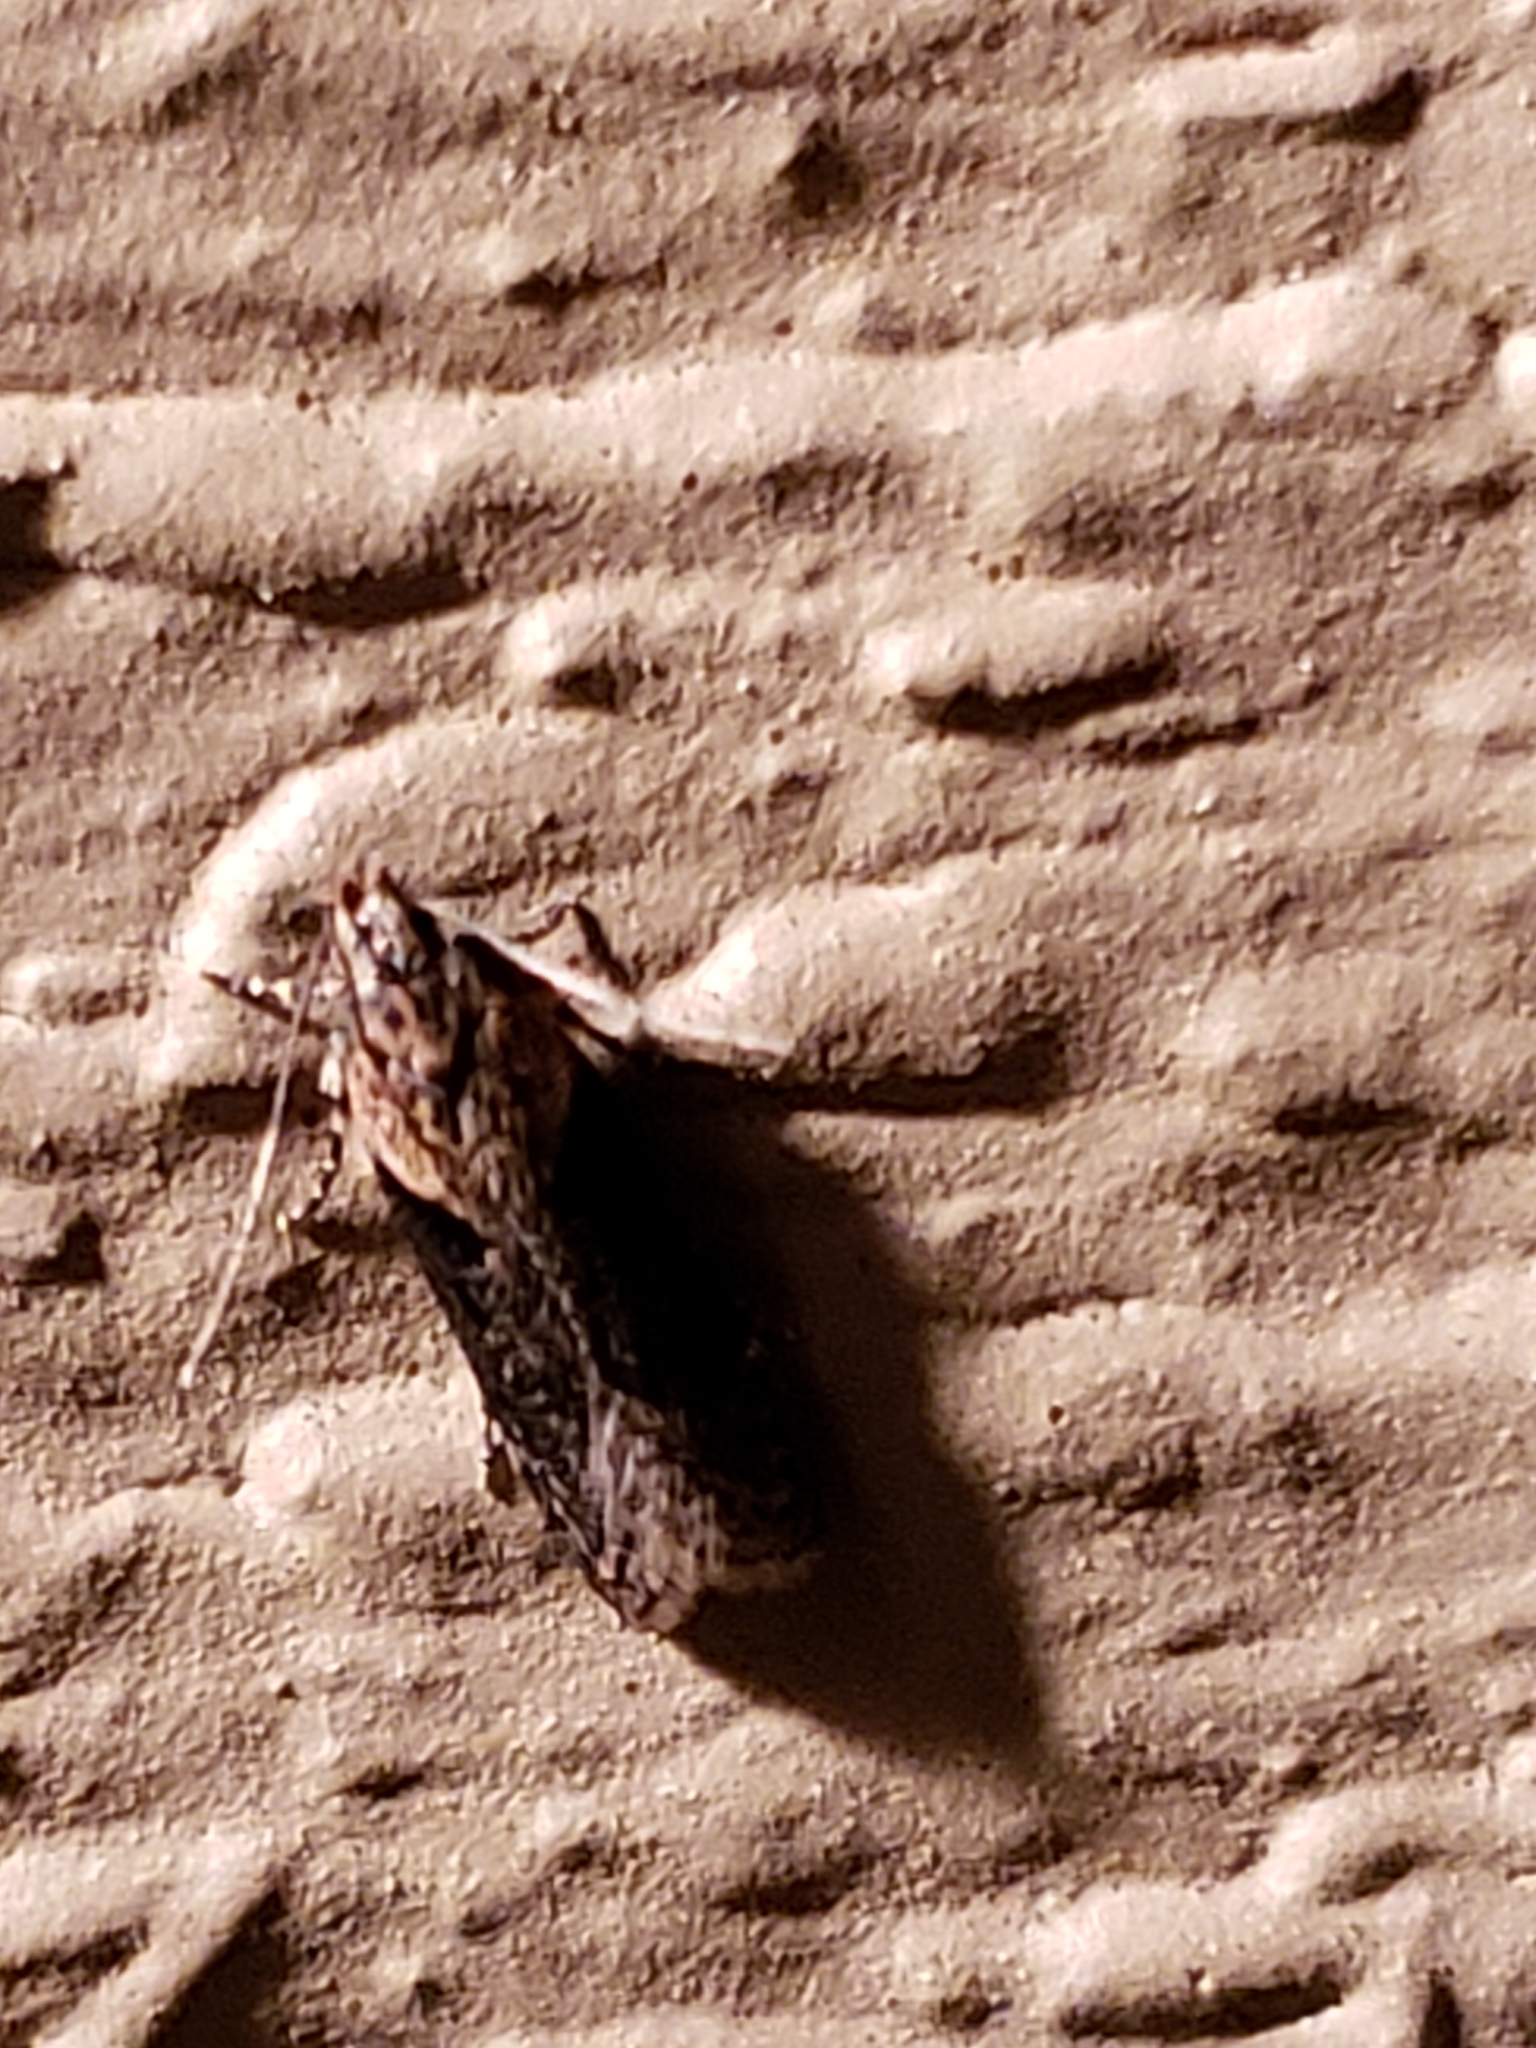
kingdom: Animalia
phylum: Arthropoda
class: Insecta
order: Lepidoptera
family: Gelechiidae
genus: Chionodes
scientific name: Chionodes mediofuscella
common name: Black-smudged chionodes moth
